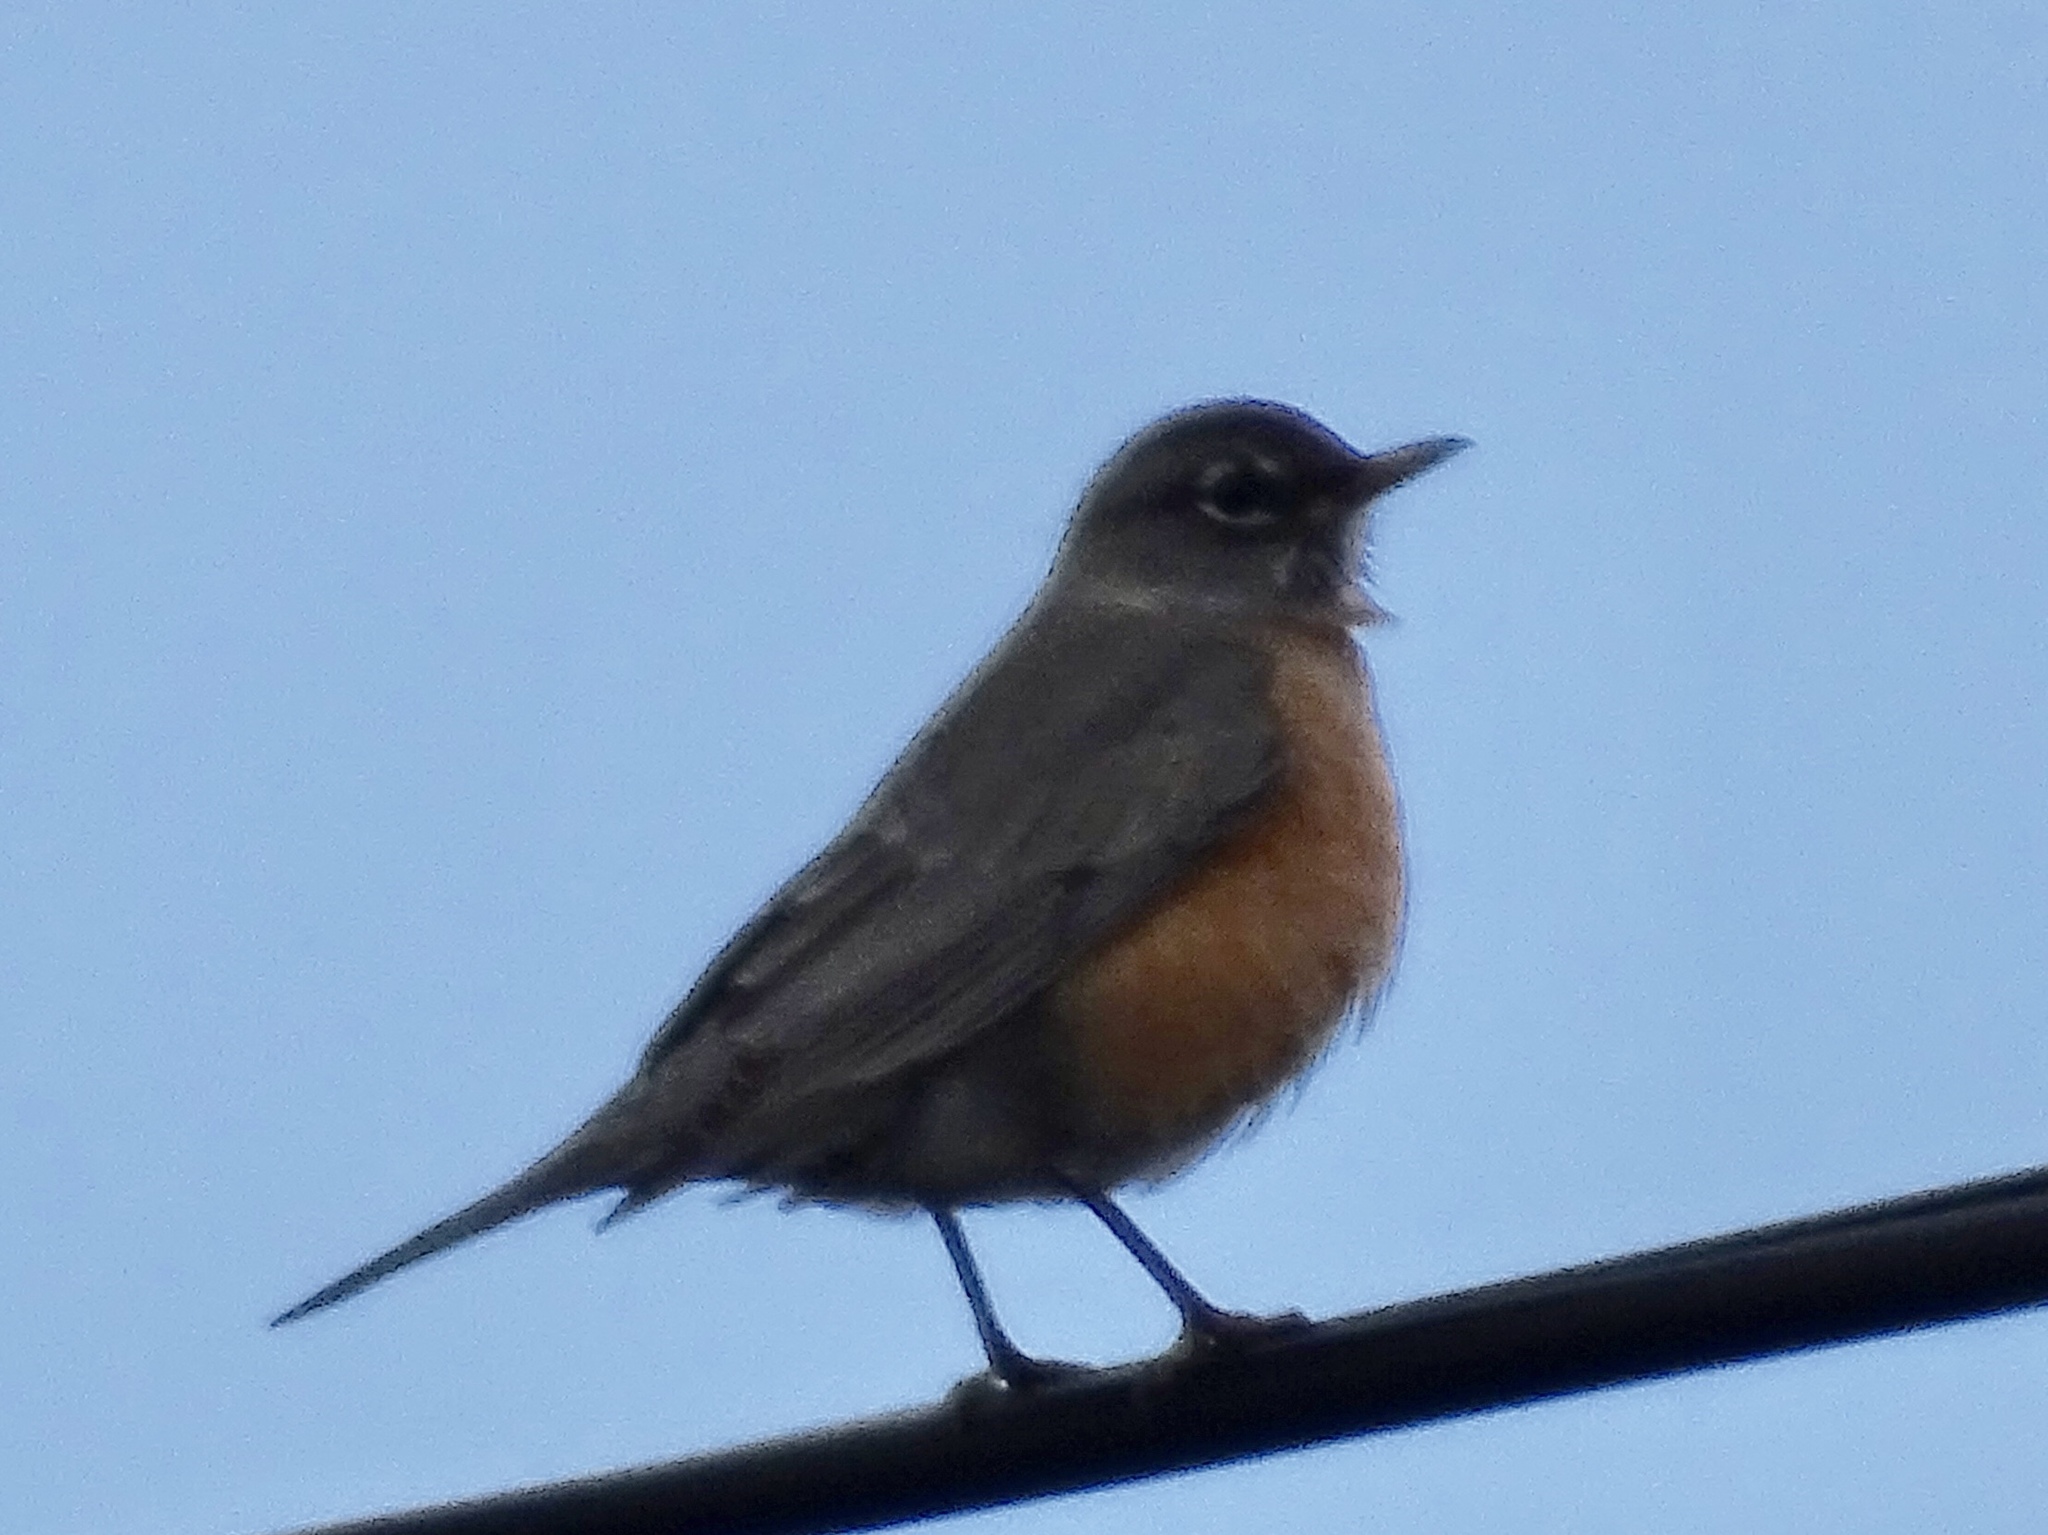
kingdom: Animalia
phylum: Chordata
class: Aves
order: Passeriformes
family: Turdidae
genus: Turdus
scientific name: Turdus migratorius
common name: American robin
